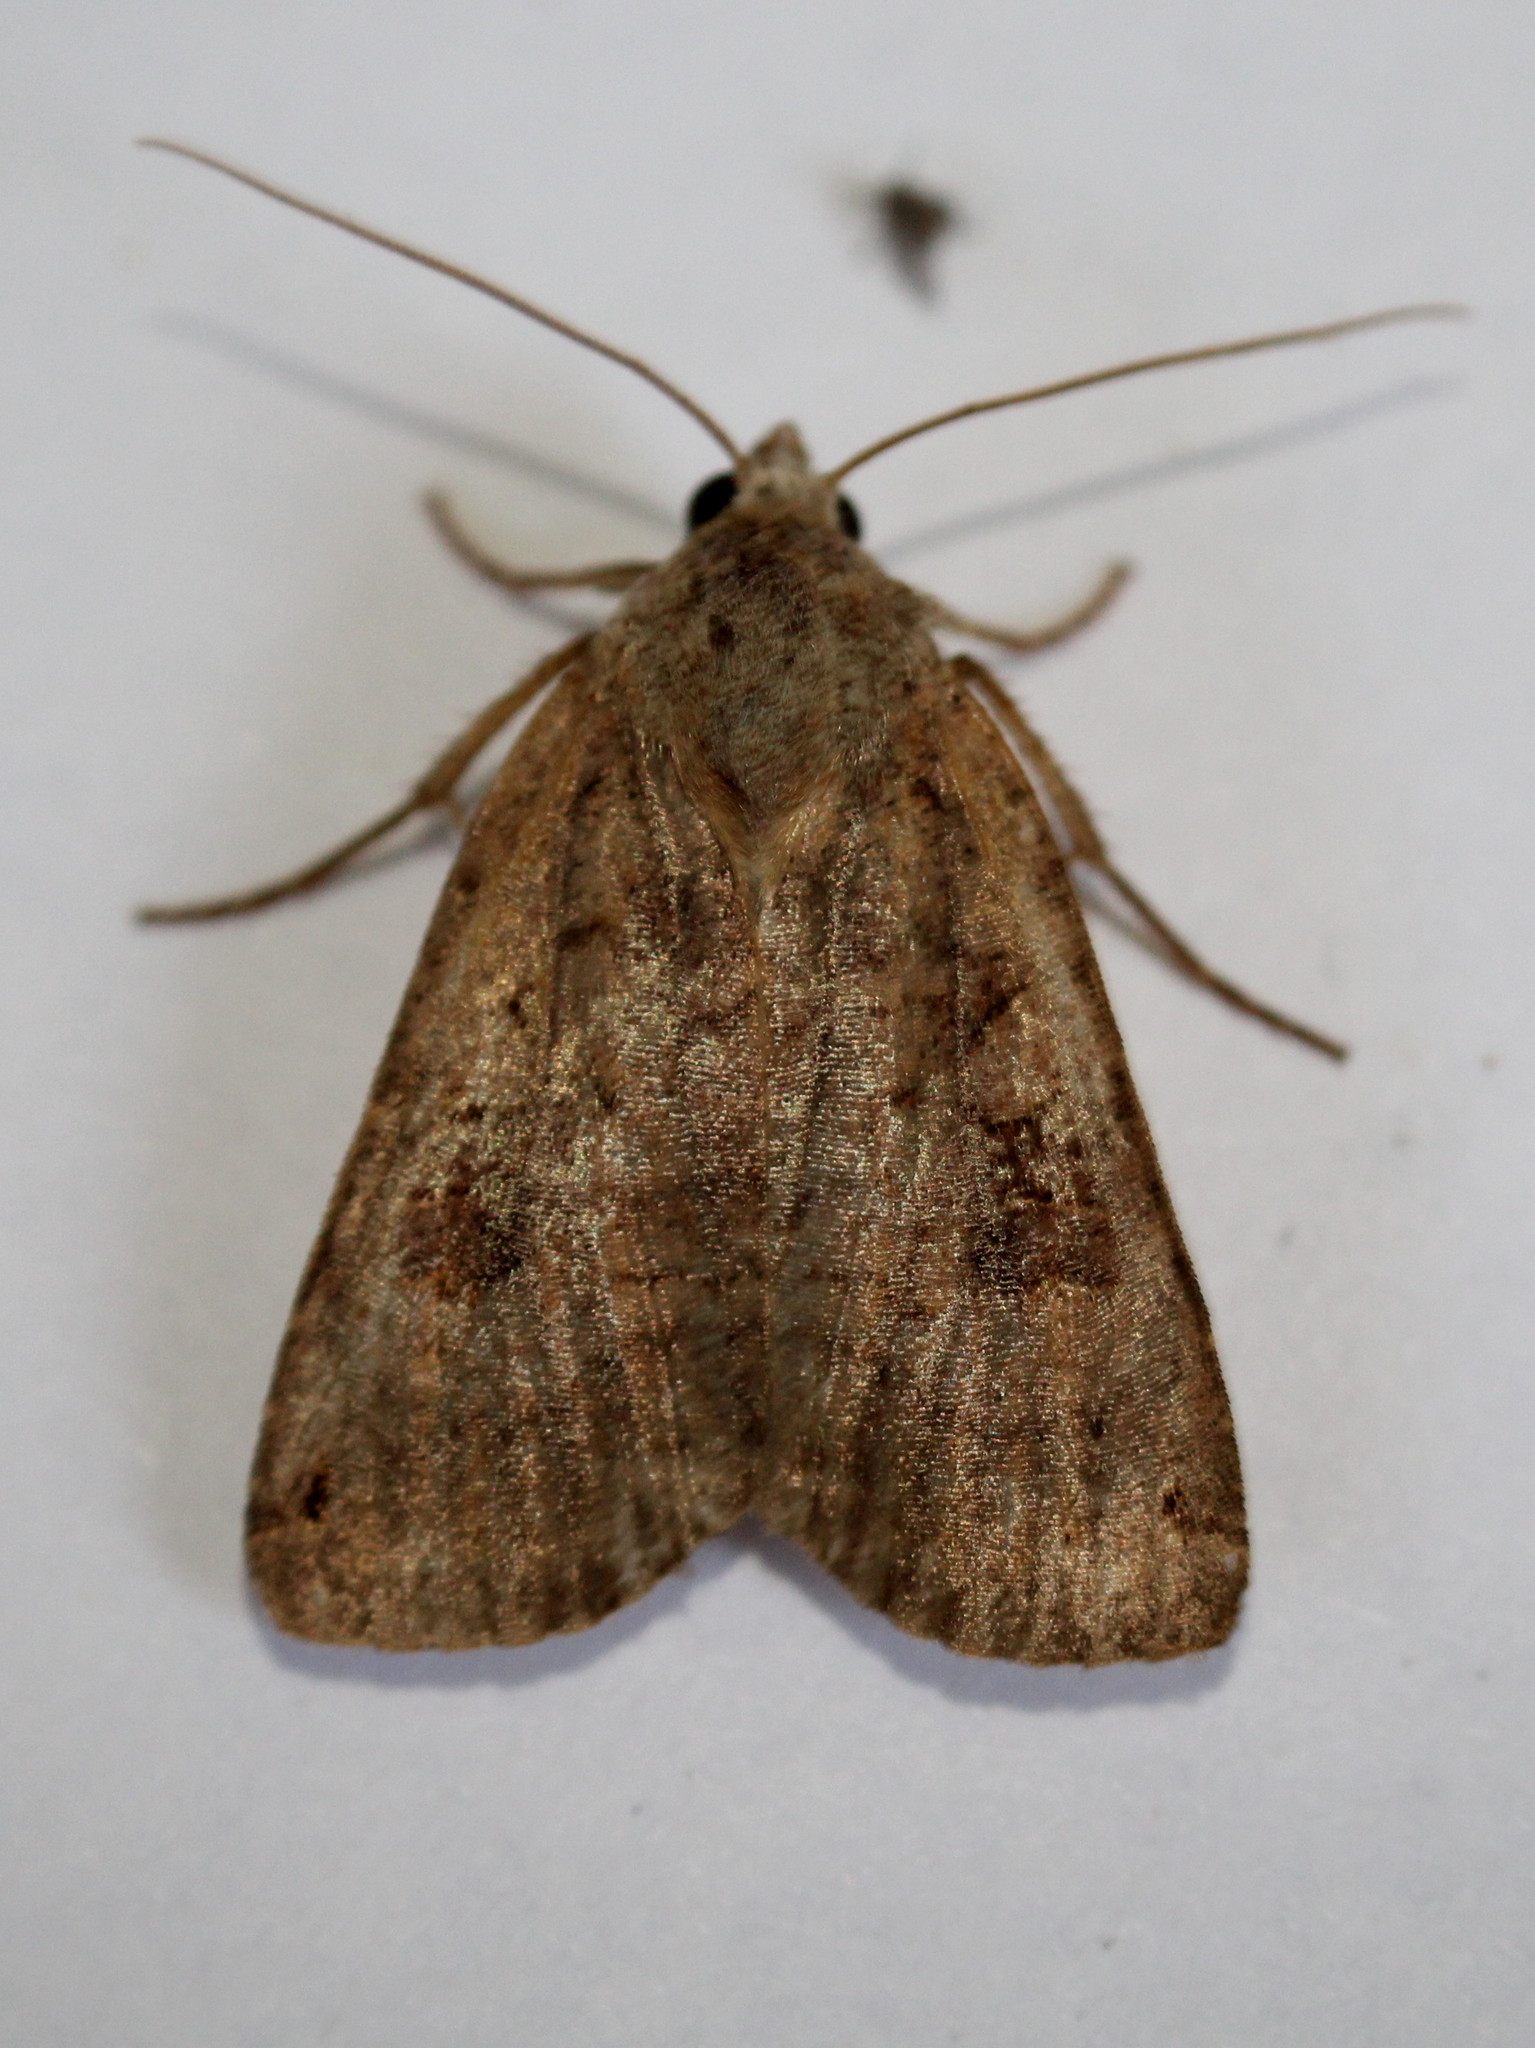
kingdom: Animalia
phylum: Arthropoda
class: Insecta
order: Lepidoptera
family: Noctuidae
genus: Xestia
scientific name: Xestia smithii
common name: Smith's dart
